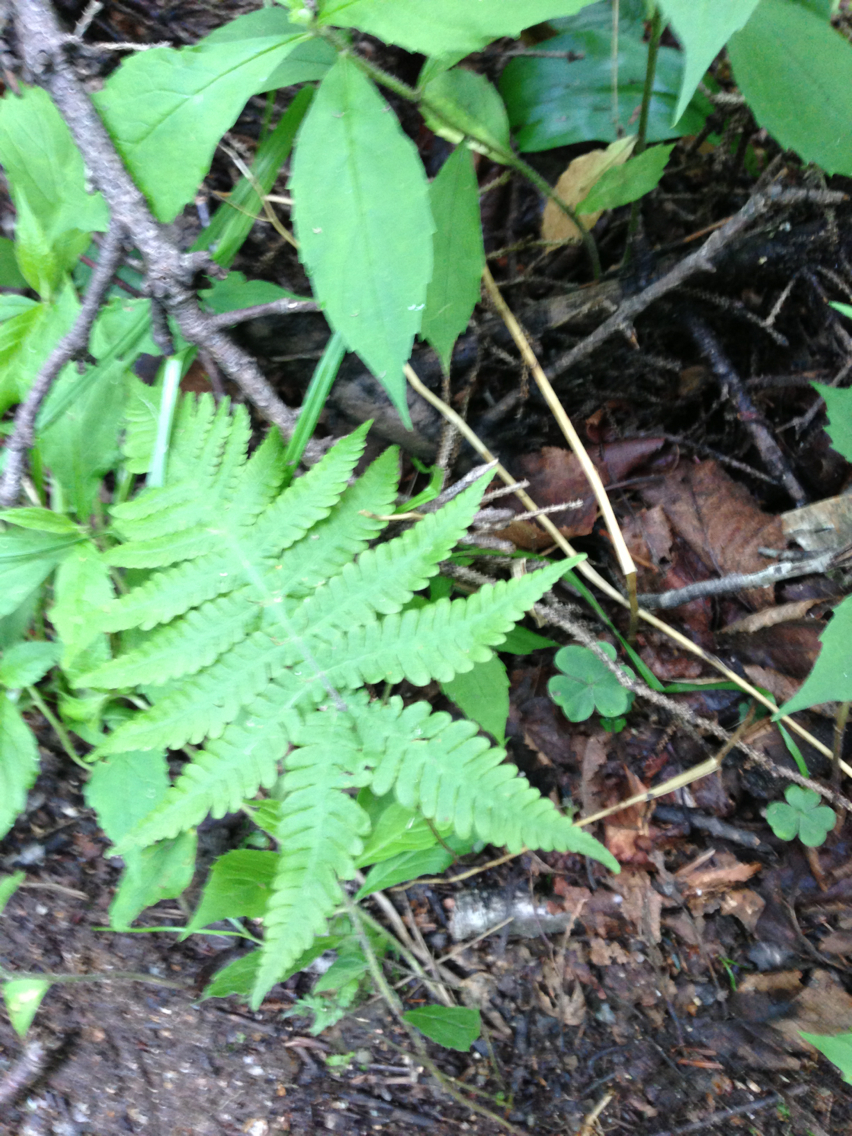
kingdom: Plantae
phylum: Tracheophyta
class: Polypodiopsida
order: Polypodiales
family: Thelypteridaceae
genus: Phegopteris
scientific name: Phegopteris connectilis
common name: Beech fern
